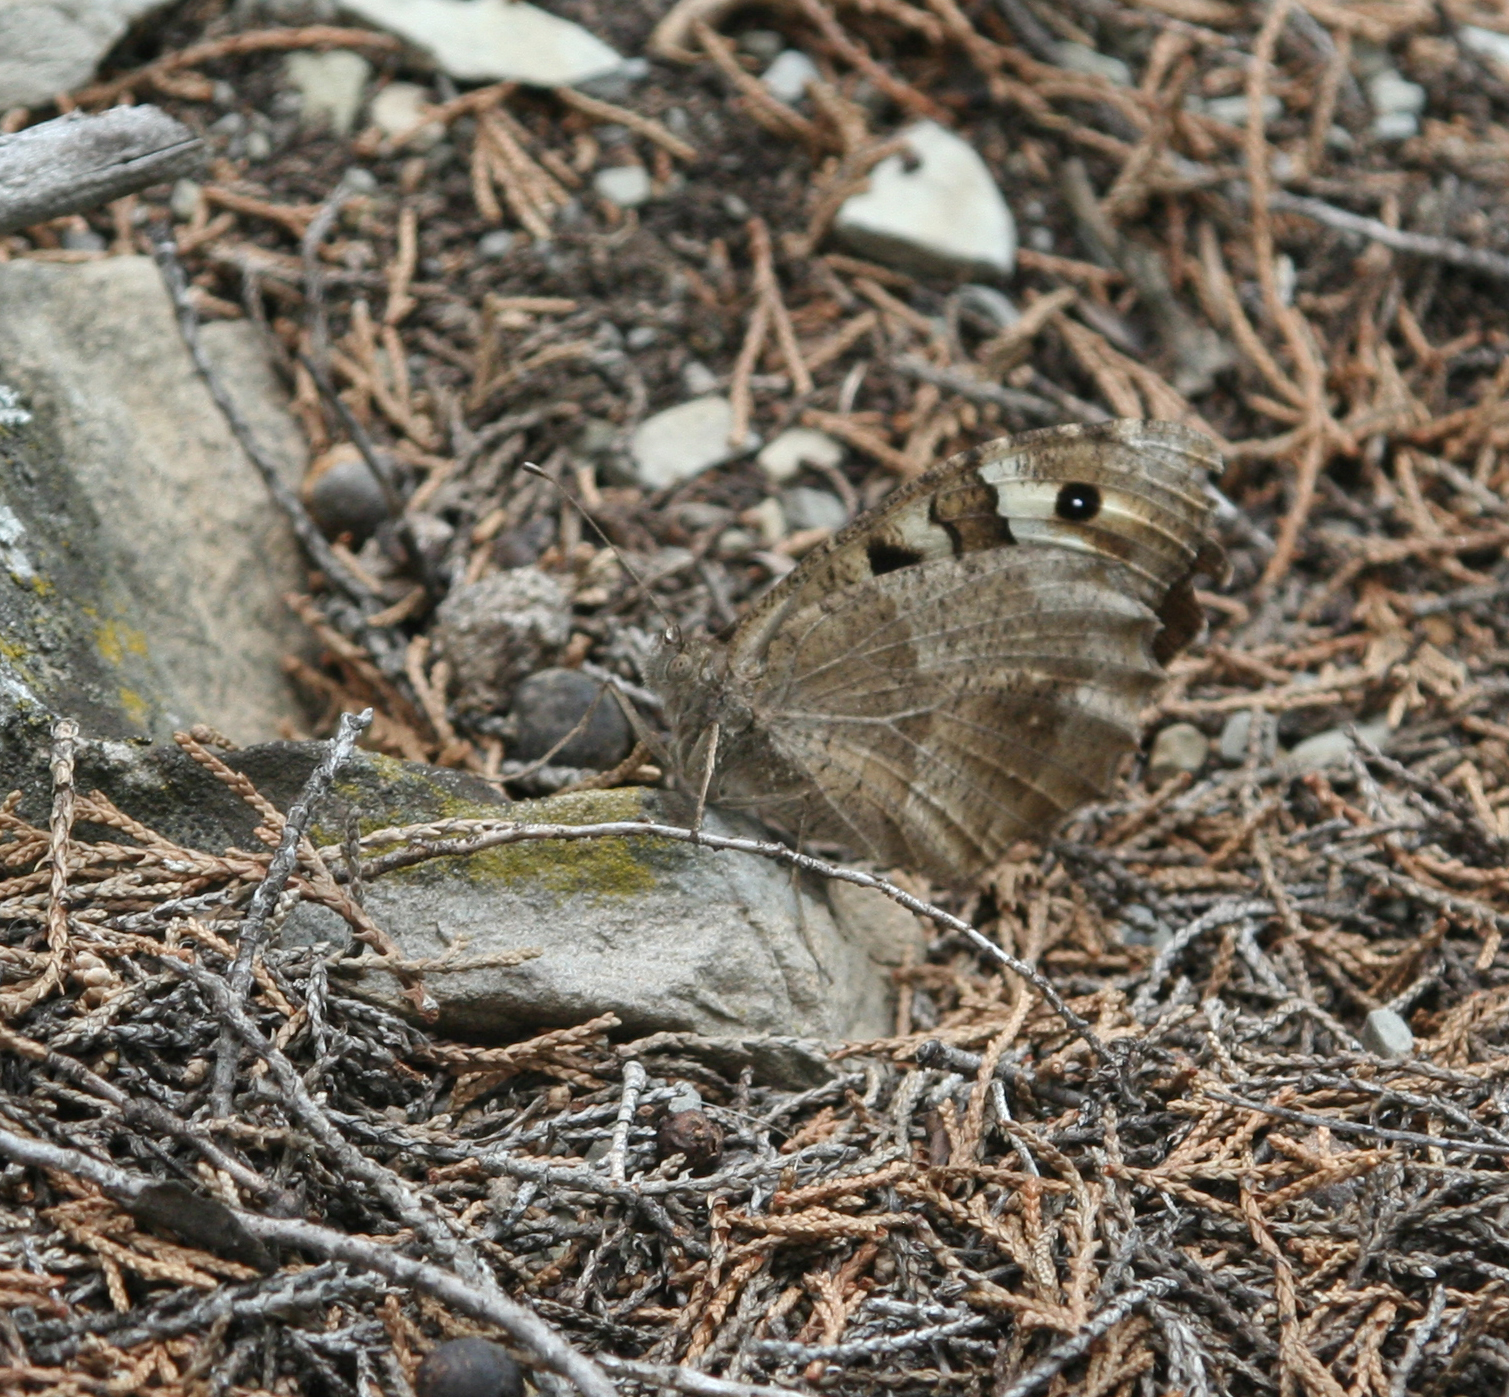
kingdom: Animalia
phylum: Arthropoda
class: Insecta
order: Lepidoptera
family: Nymphalidae
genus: Satyrus
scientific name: Satyrus briseis
